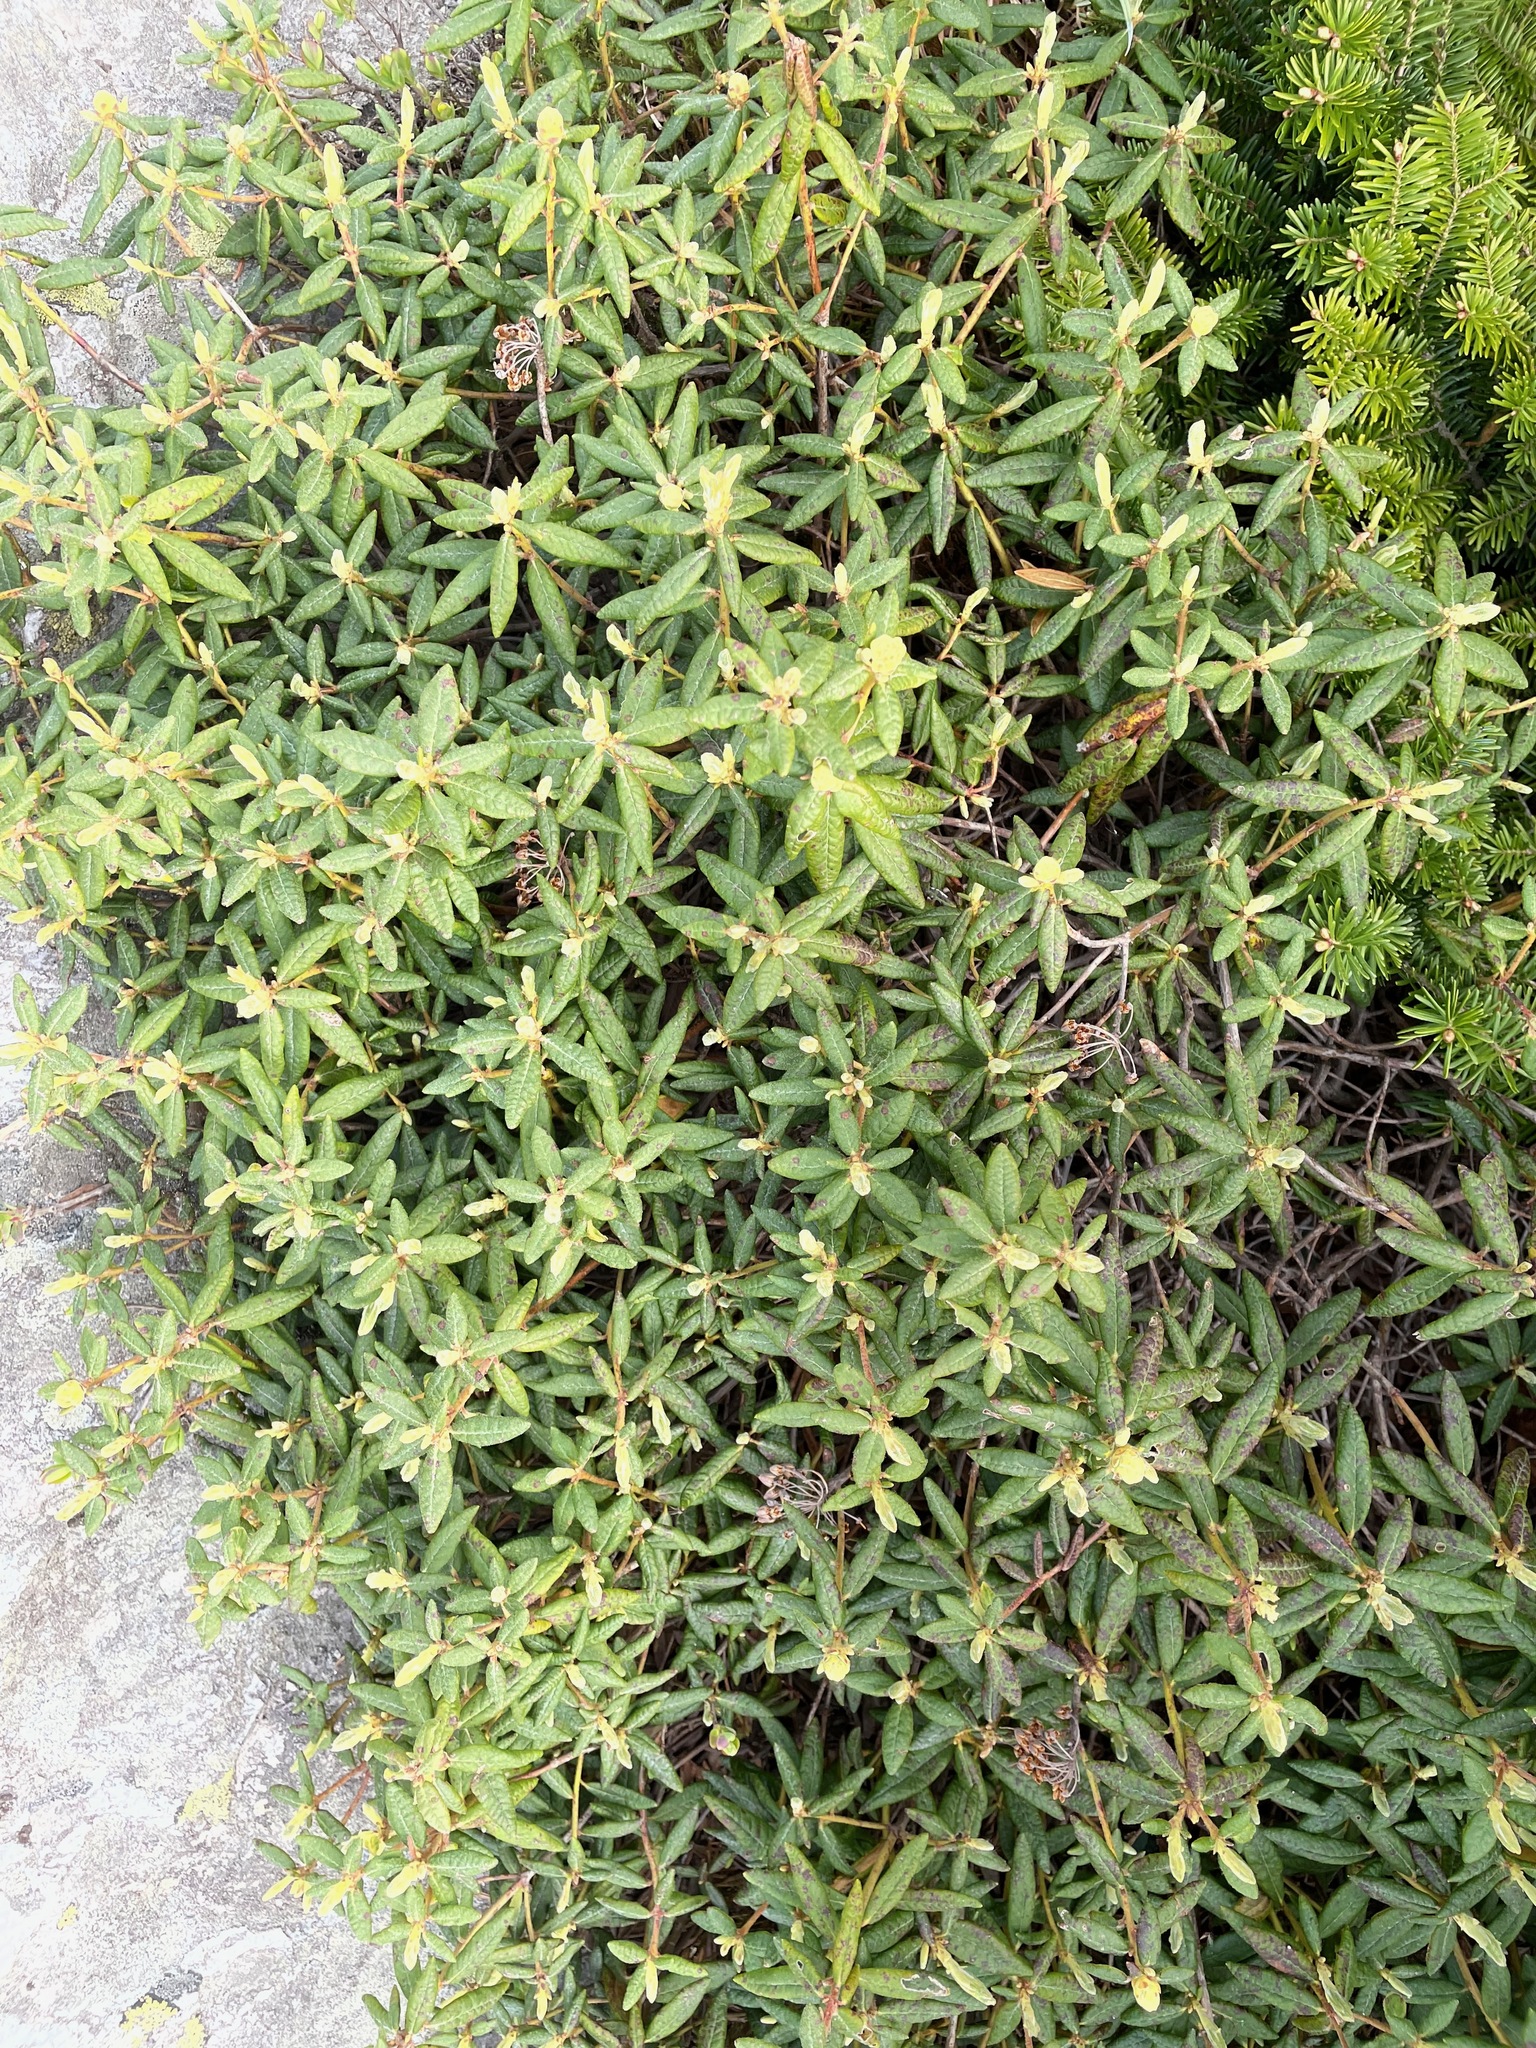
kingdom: Plantae
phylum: Tracheophyta
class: Magnoliopsida
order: Ericales
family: Ericaceae
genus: Rhododendron
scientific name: Rhododendron groenlandicum
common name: Bog labrador tea
